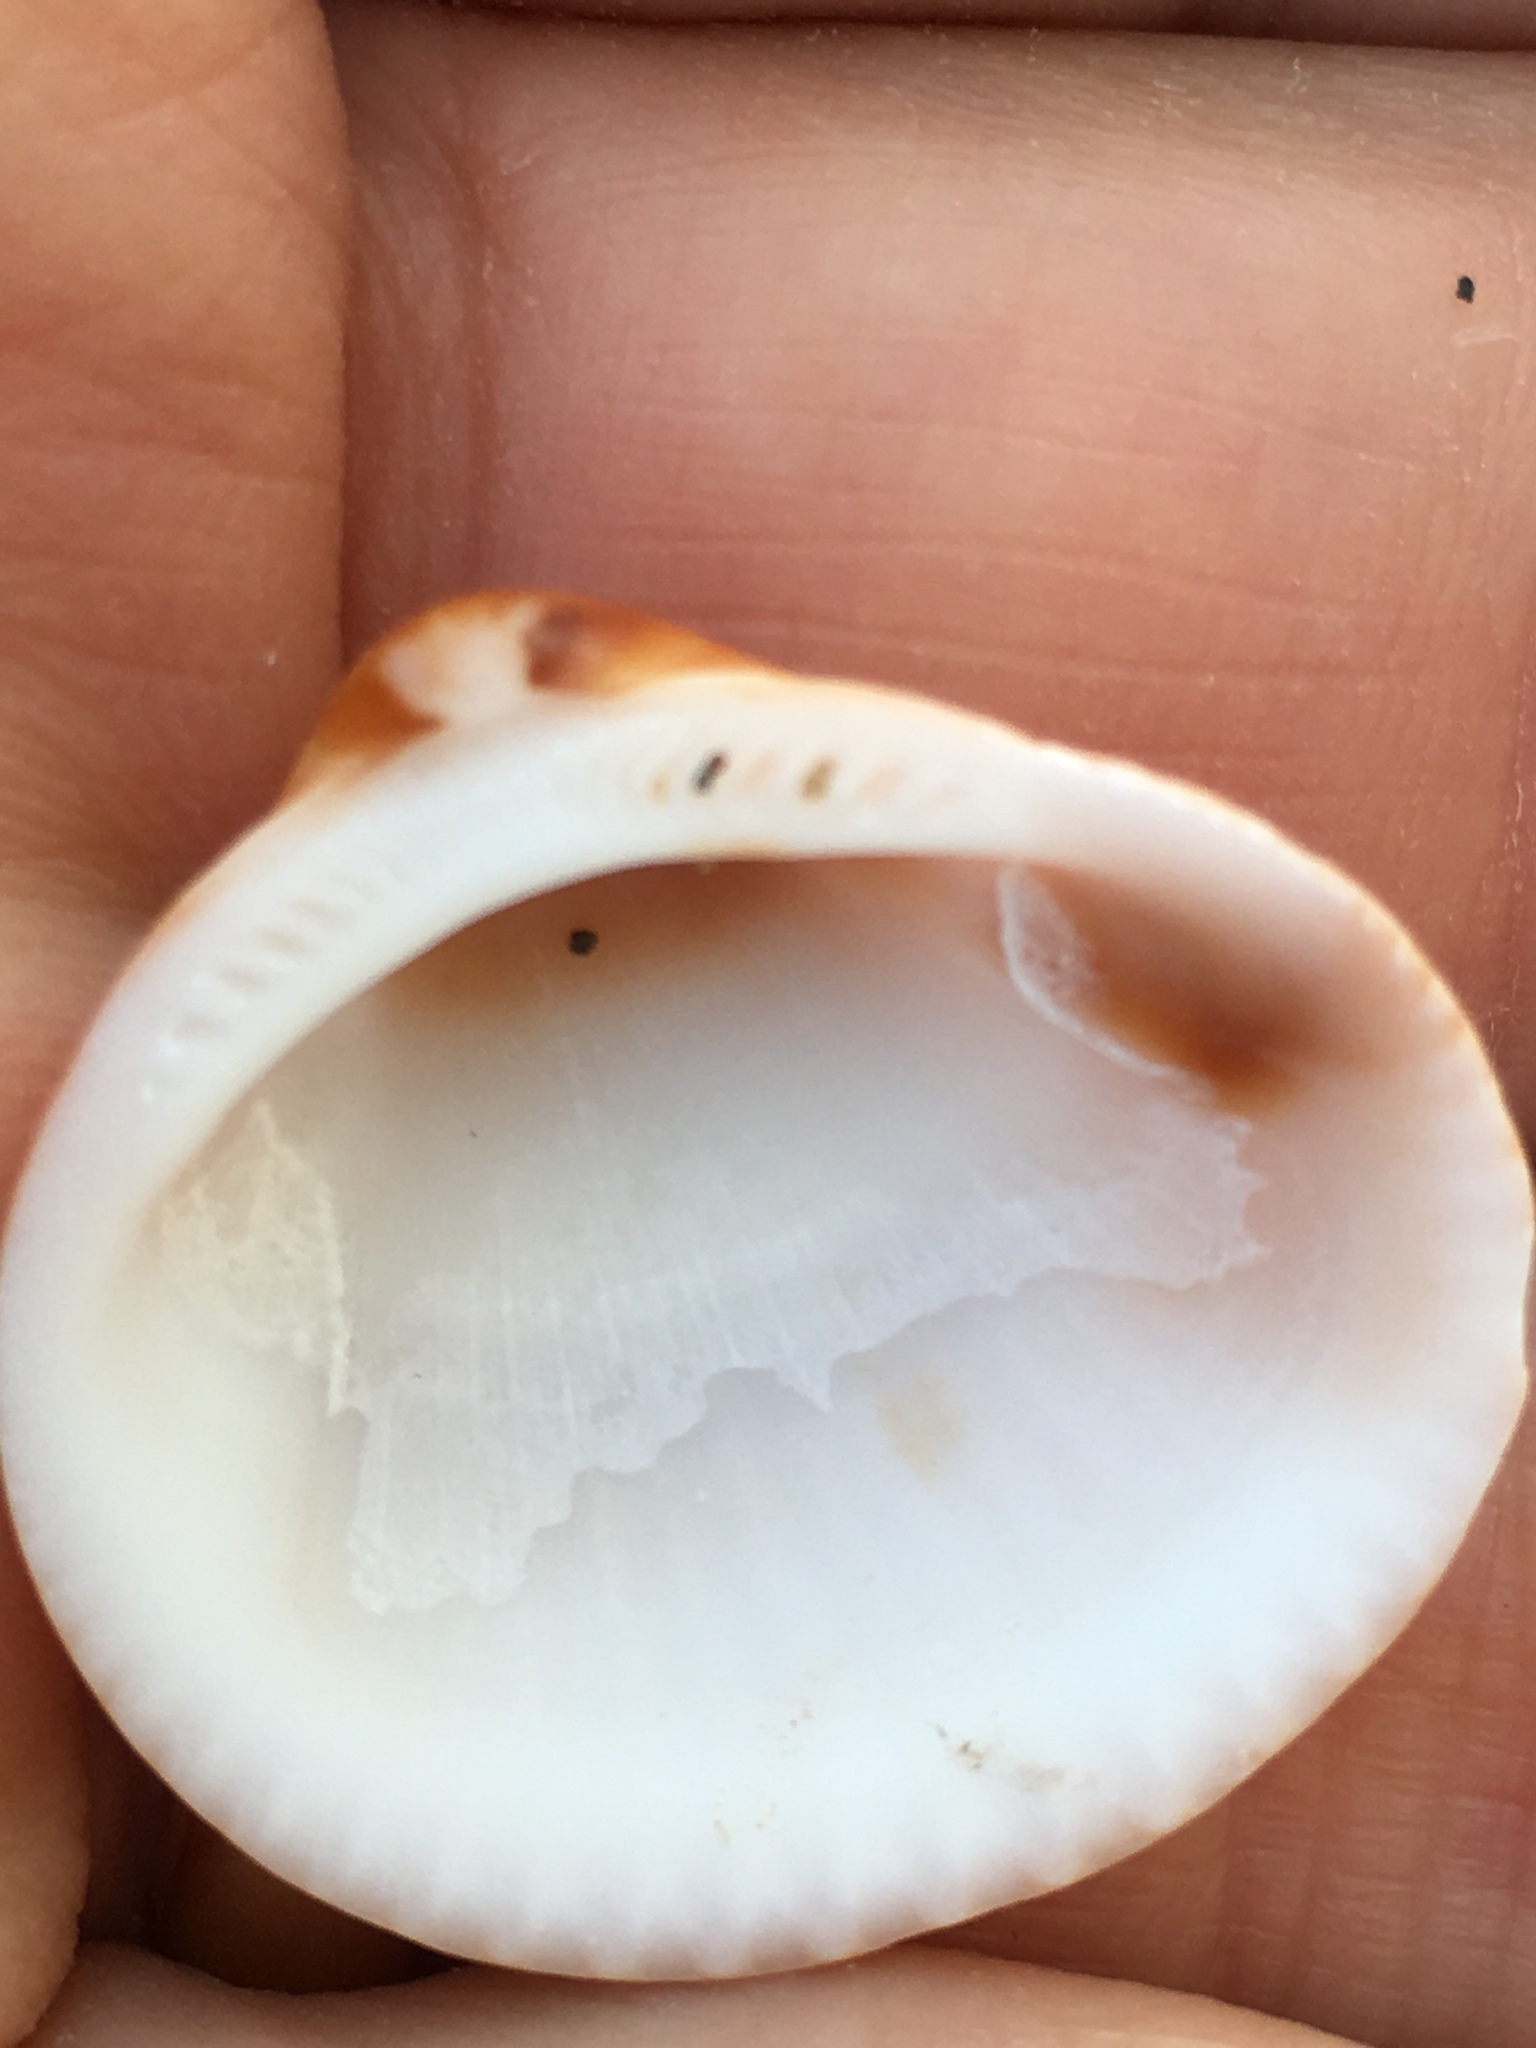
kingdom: Animalia
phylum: Mollusca
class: Bivalvia
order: Arcida
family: Glycymerididae
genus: Glycymeris
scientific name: Glycymeris spectralis
